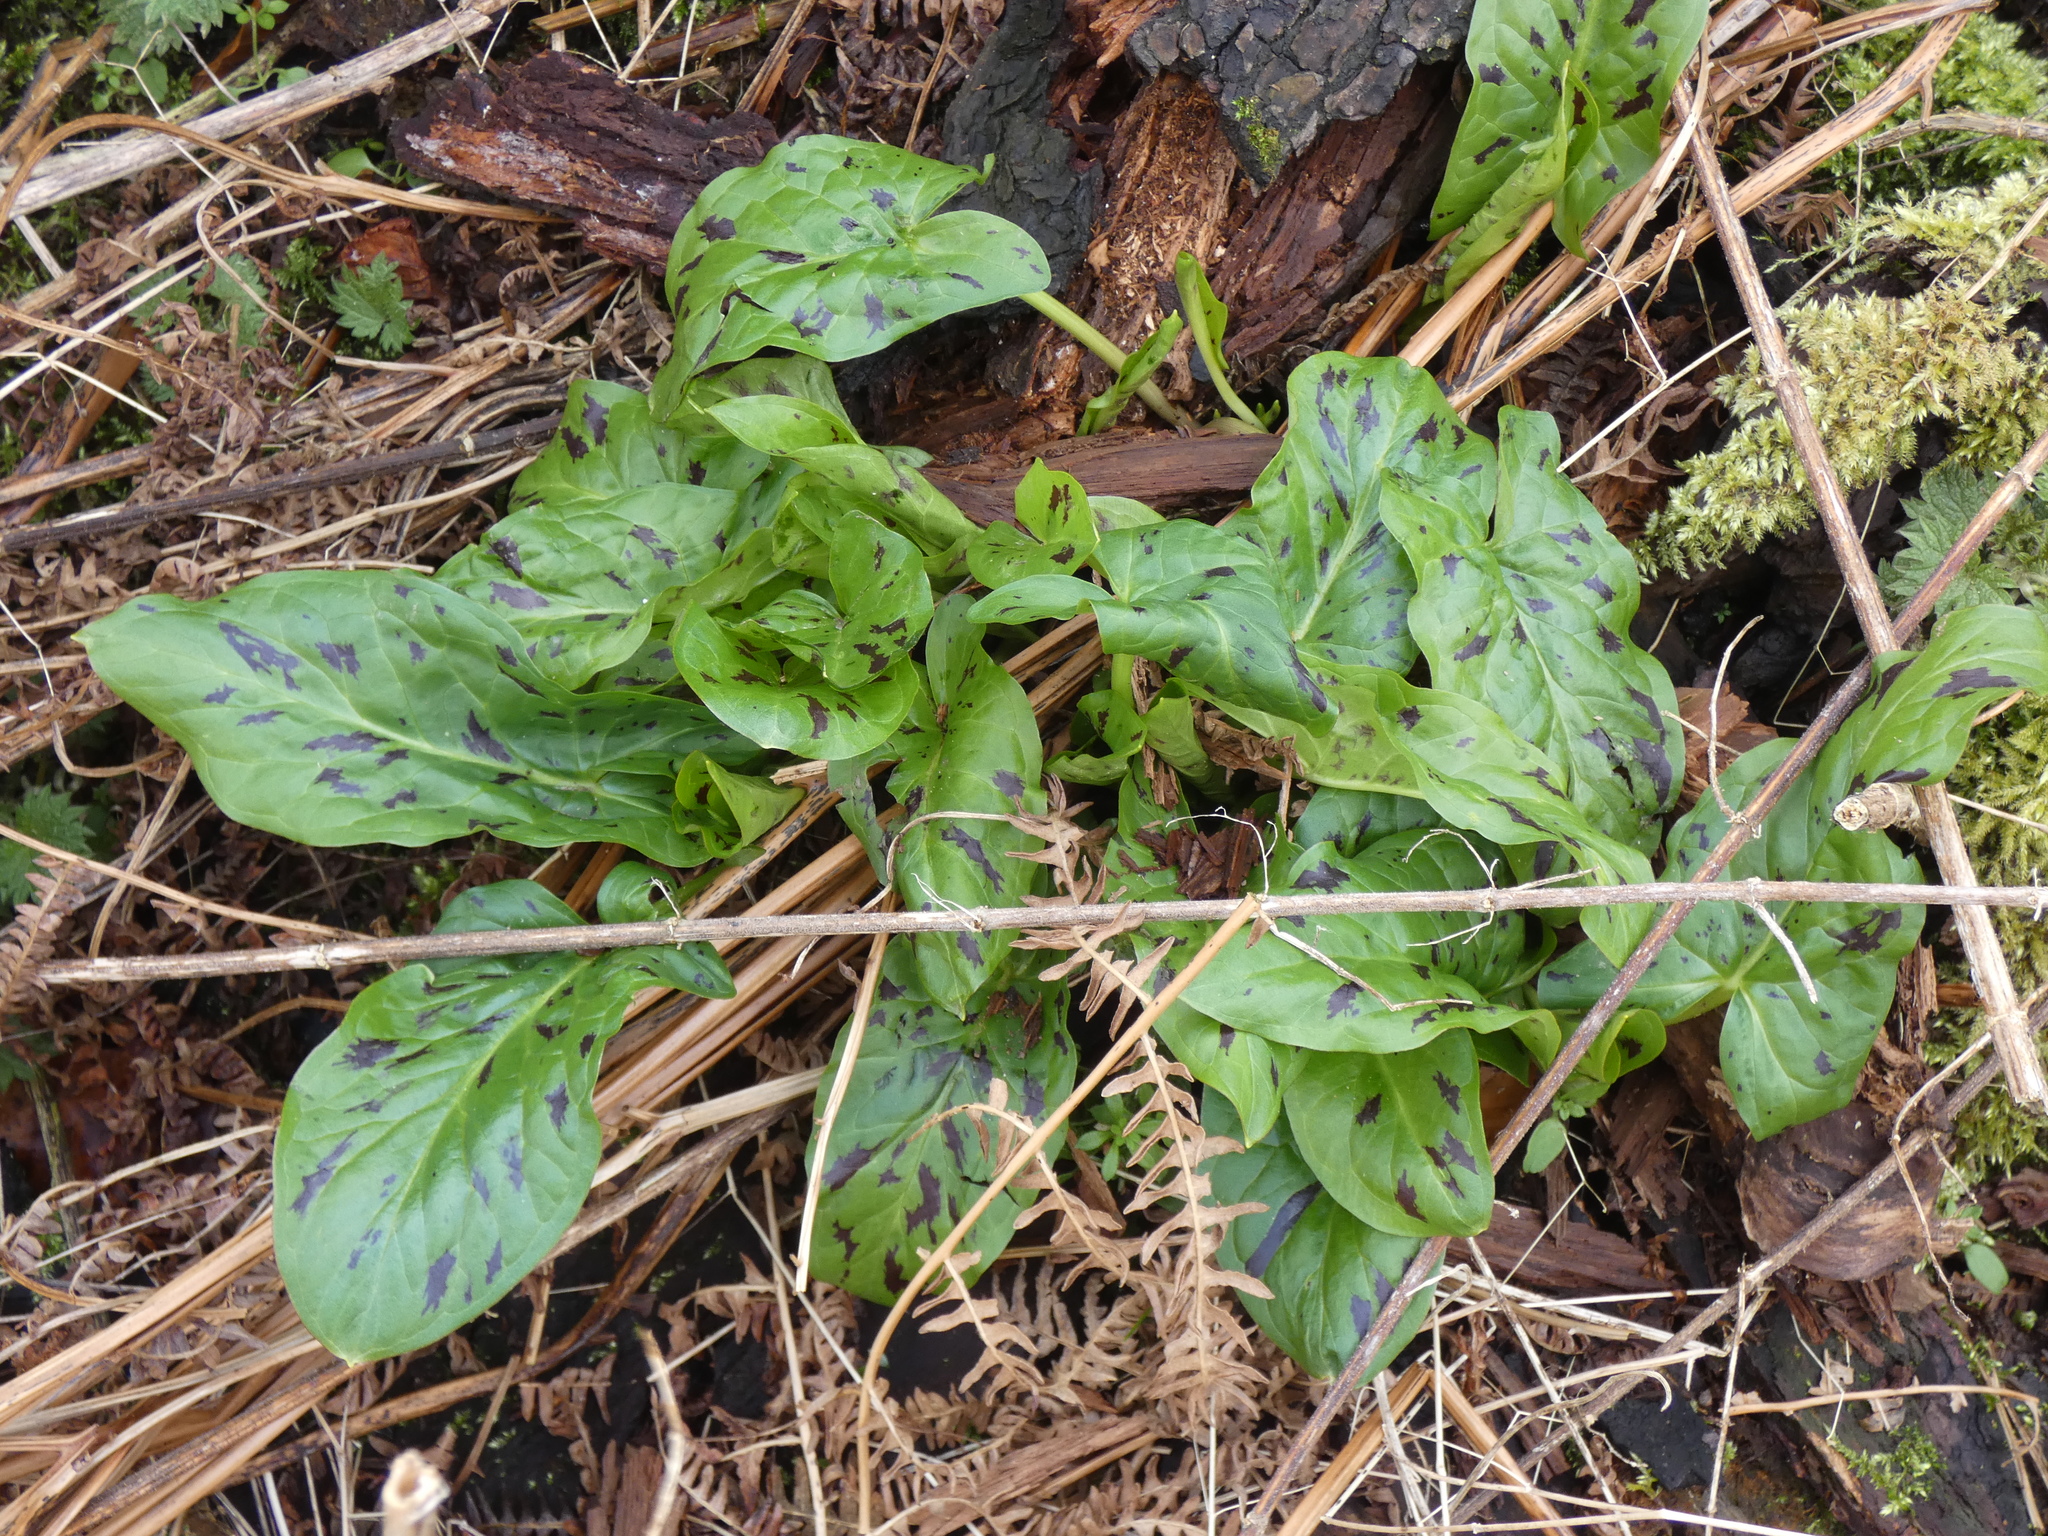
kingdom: Plantae
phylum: Tracheophyta
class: Liliopsida
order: Alismatales
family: Araceae
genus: Arum
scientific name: Arum maculatum
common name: Lords-and-ladies
